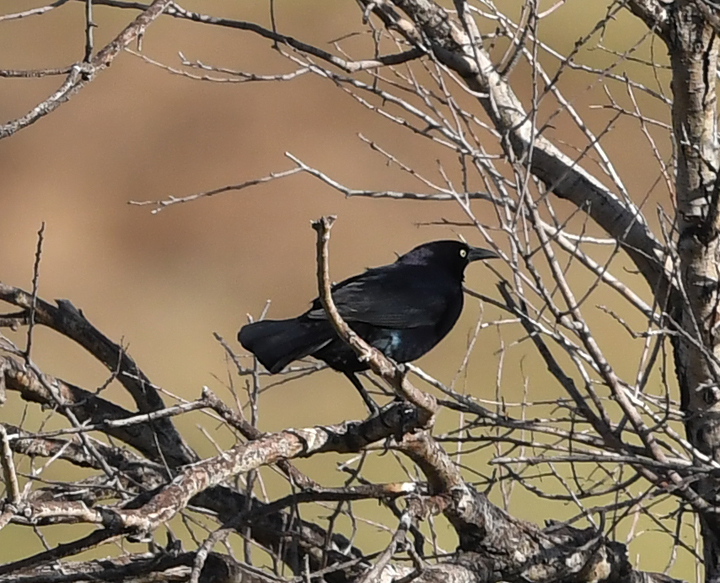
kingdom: Animalia
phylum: Chordata
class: Aves
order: Passeriformes
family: Icteridae
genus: Quiscalus
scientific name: Quiscalus mexicanus
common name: Great-tailed grackle
